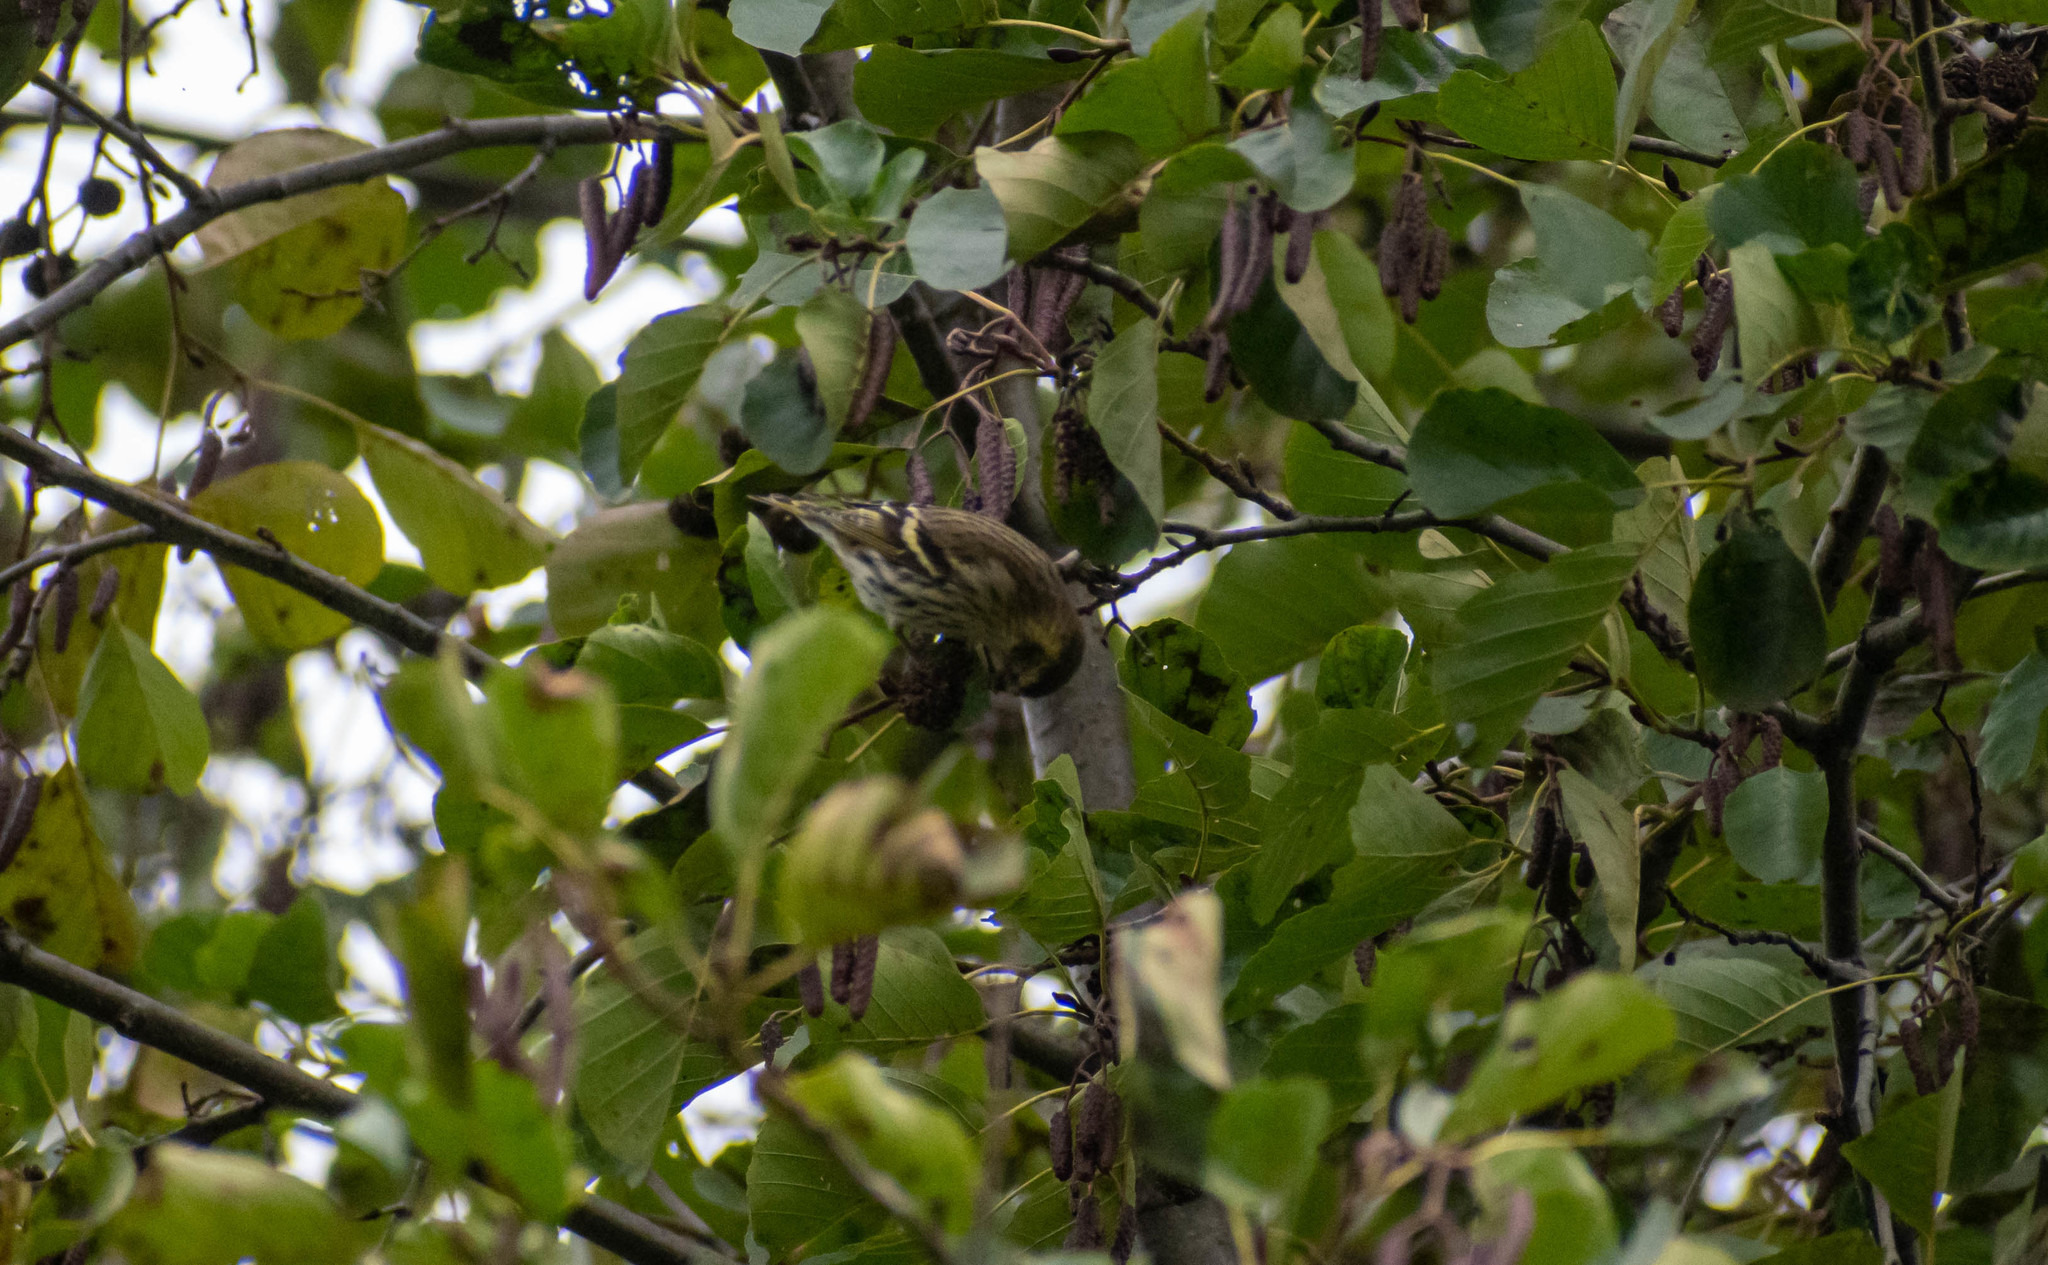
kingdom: Animalia
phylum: Chordata
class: Aves
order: Passeriformes
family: Fringillidae
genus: Spinus
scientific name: Spinus spinus
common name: Eurasian siskin
